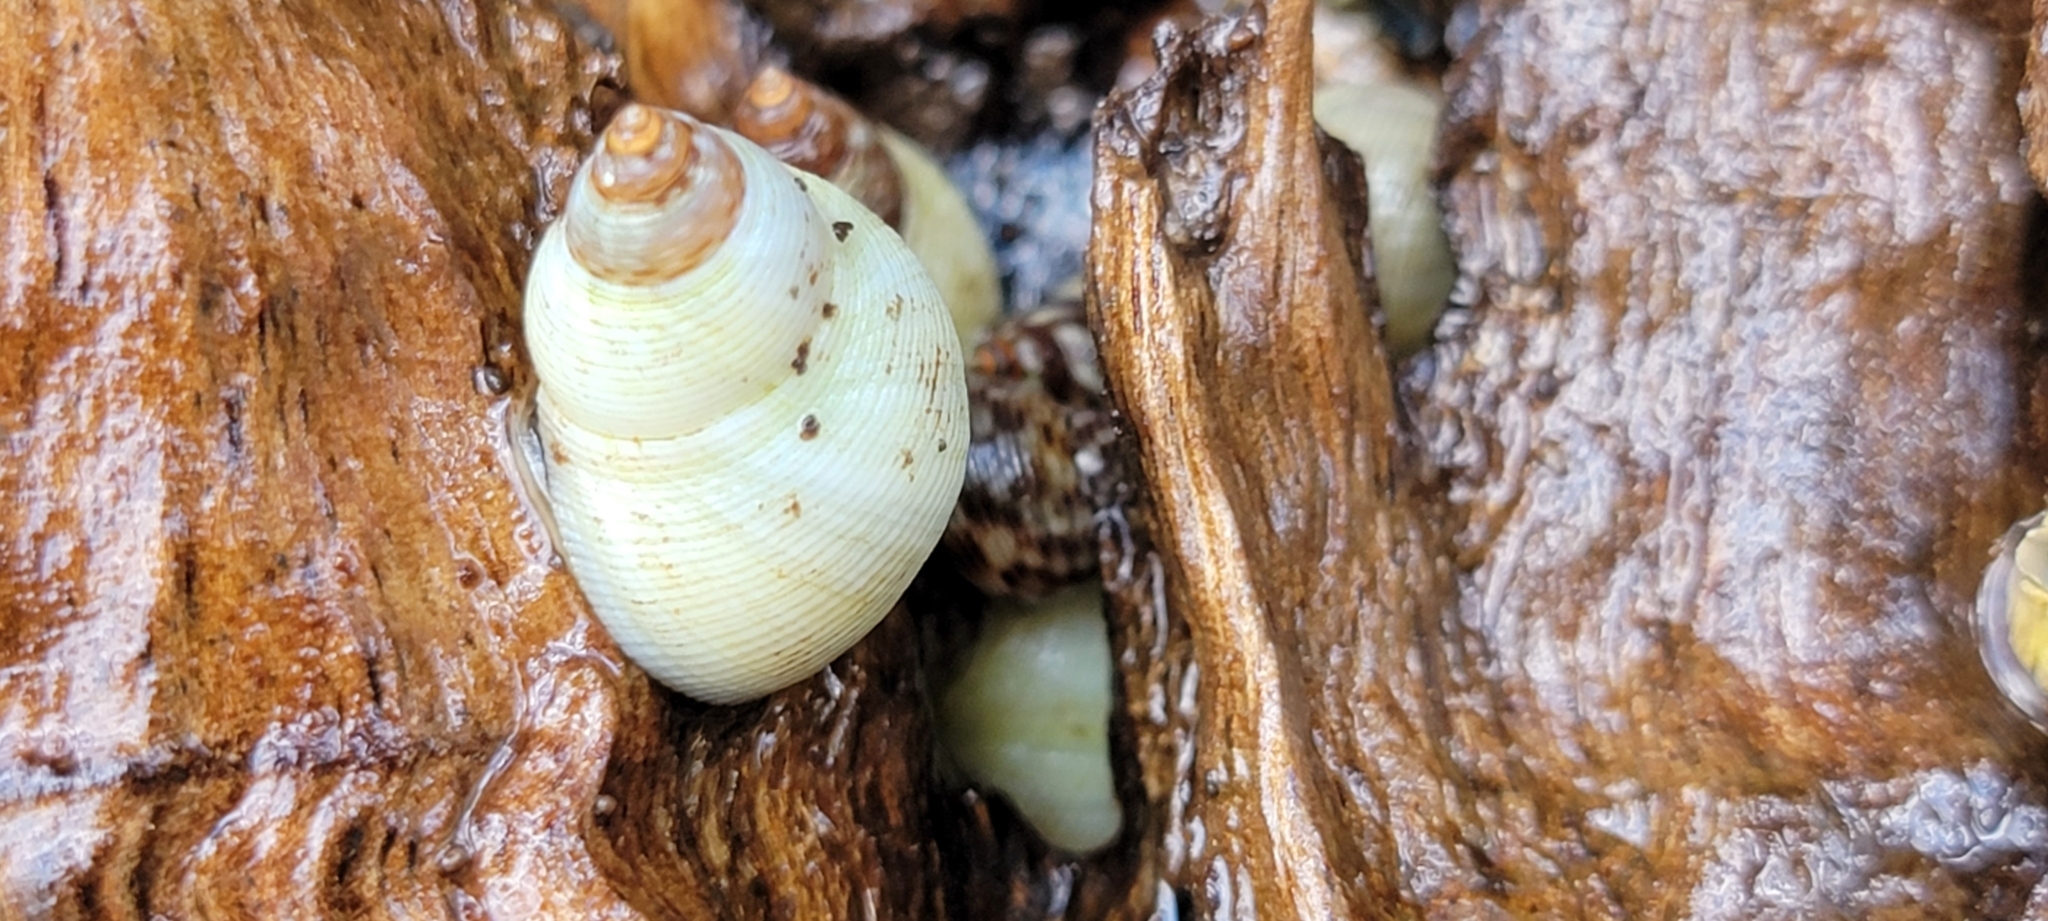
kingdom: Animalia
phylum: Mollusca
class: Gastropoda
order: Littorinimorpha
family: Littorinidae
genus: Littoraria
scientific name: Littoraria nebulosa
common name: Cloudy periwinkle
